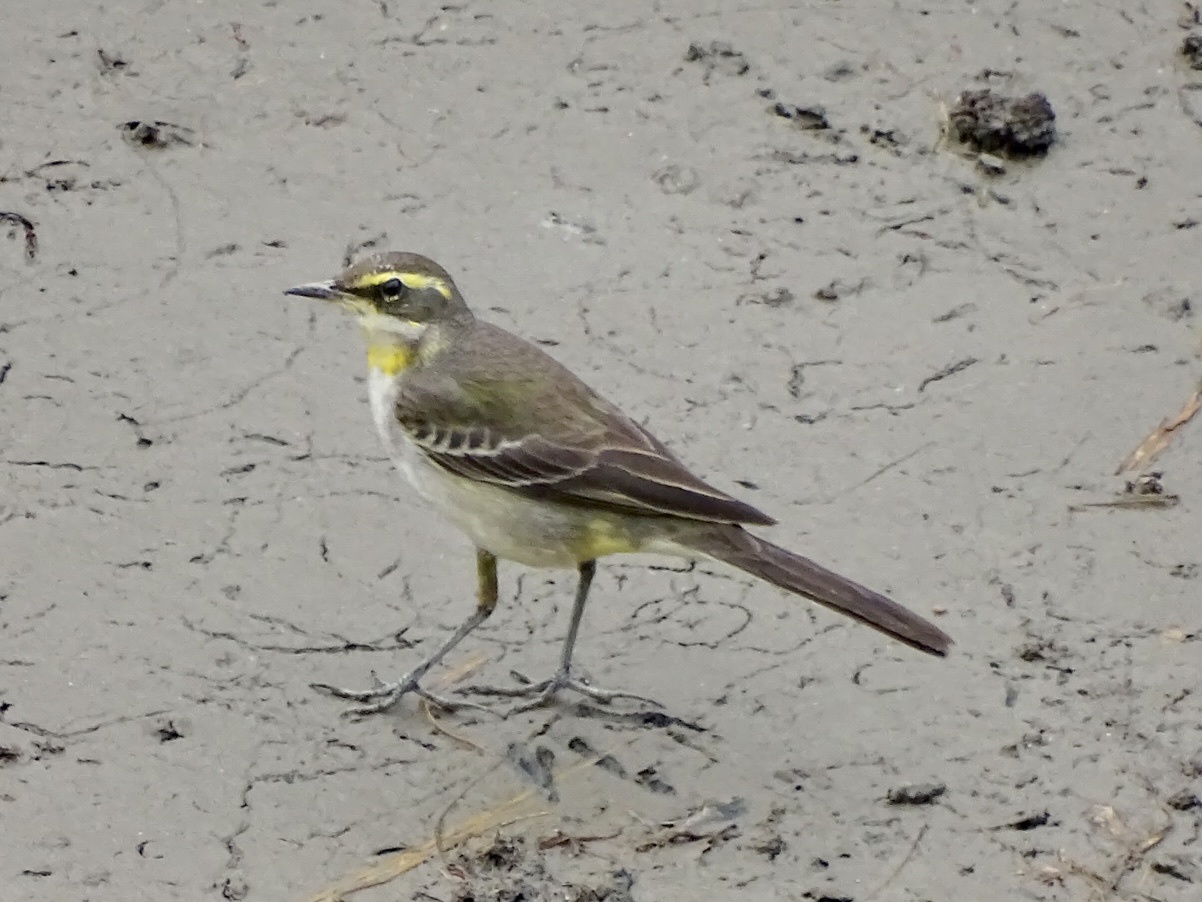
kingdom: Animalia
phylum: Chordata
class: Aves
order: Passeriformes
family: Motacillidae
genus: Motacilla
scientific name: Motacilla tschutschensis
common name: Eastern yellow wagtail
